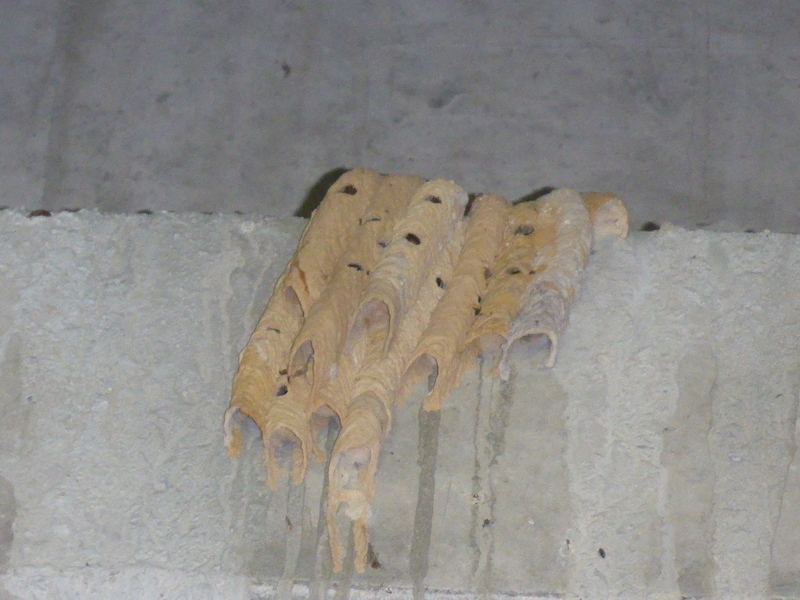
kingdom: Animalia
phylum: Arthropoda
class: Insecta
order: Hymenoptera
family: Crabronidae
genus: Trypoxylon
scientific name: Trypoxylon politum
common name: Organ-pipe mud-dauber wasp
